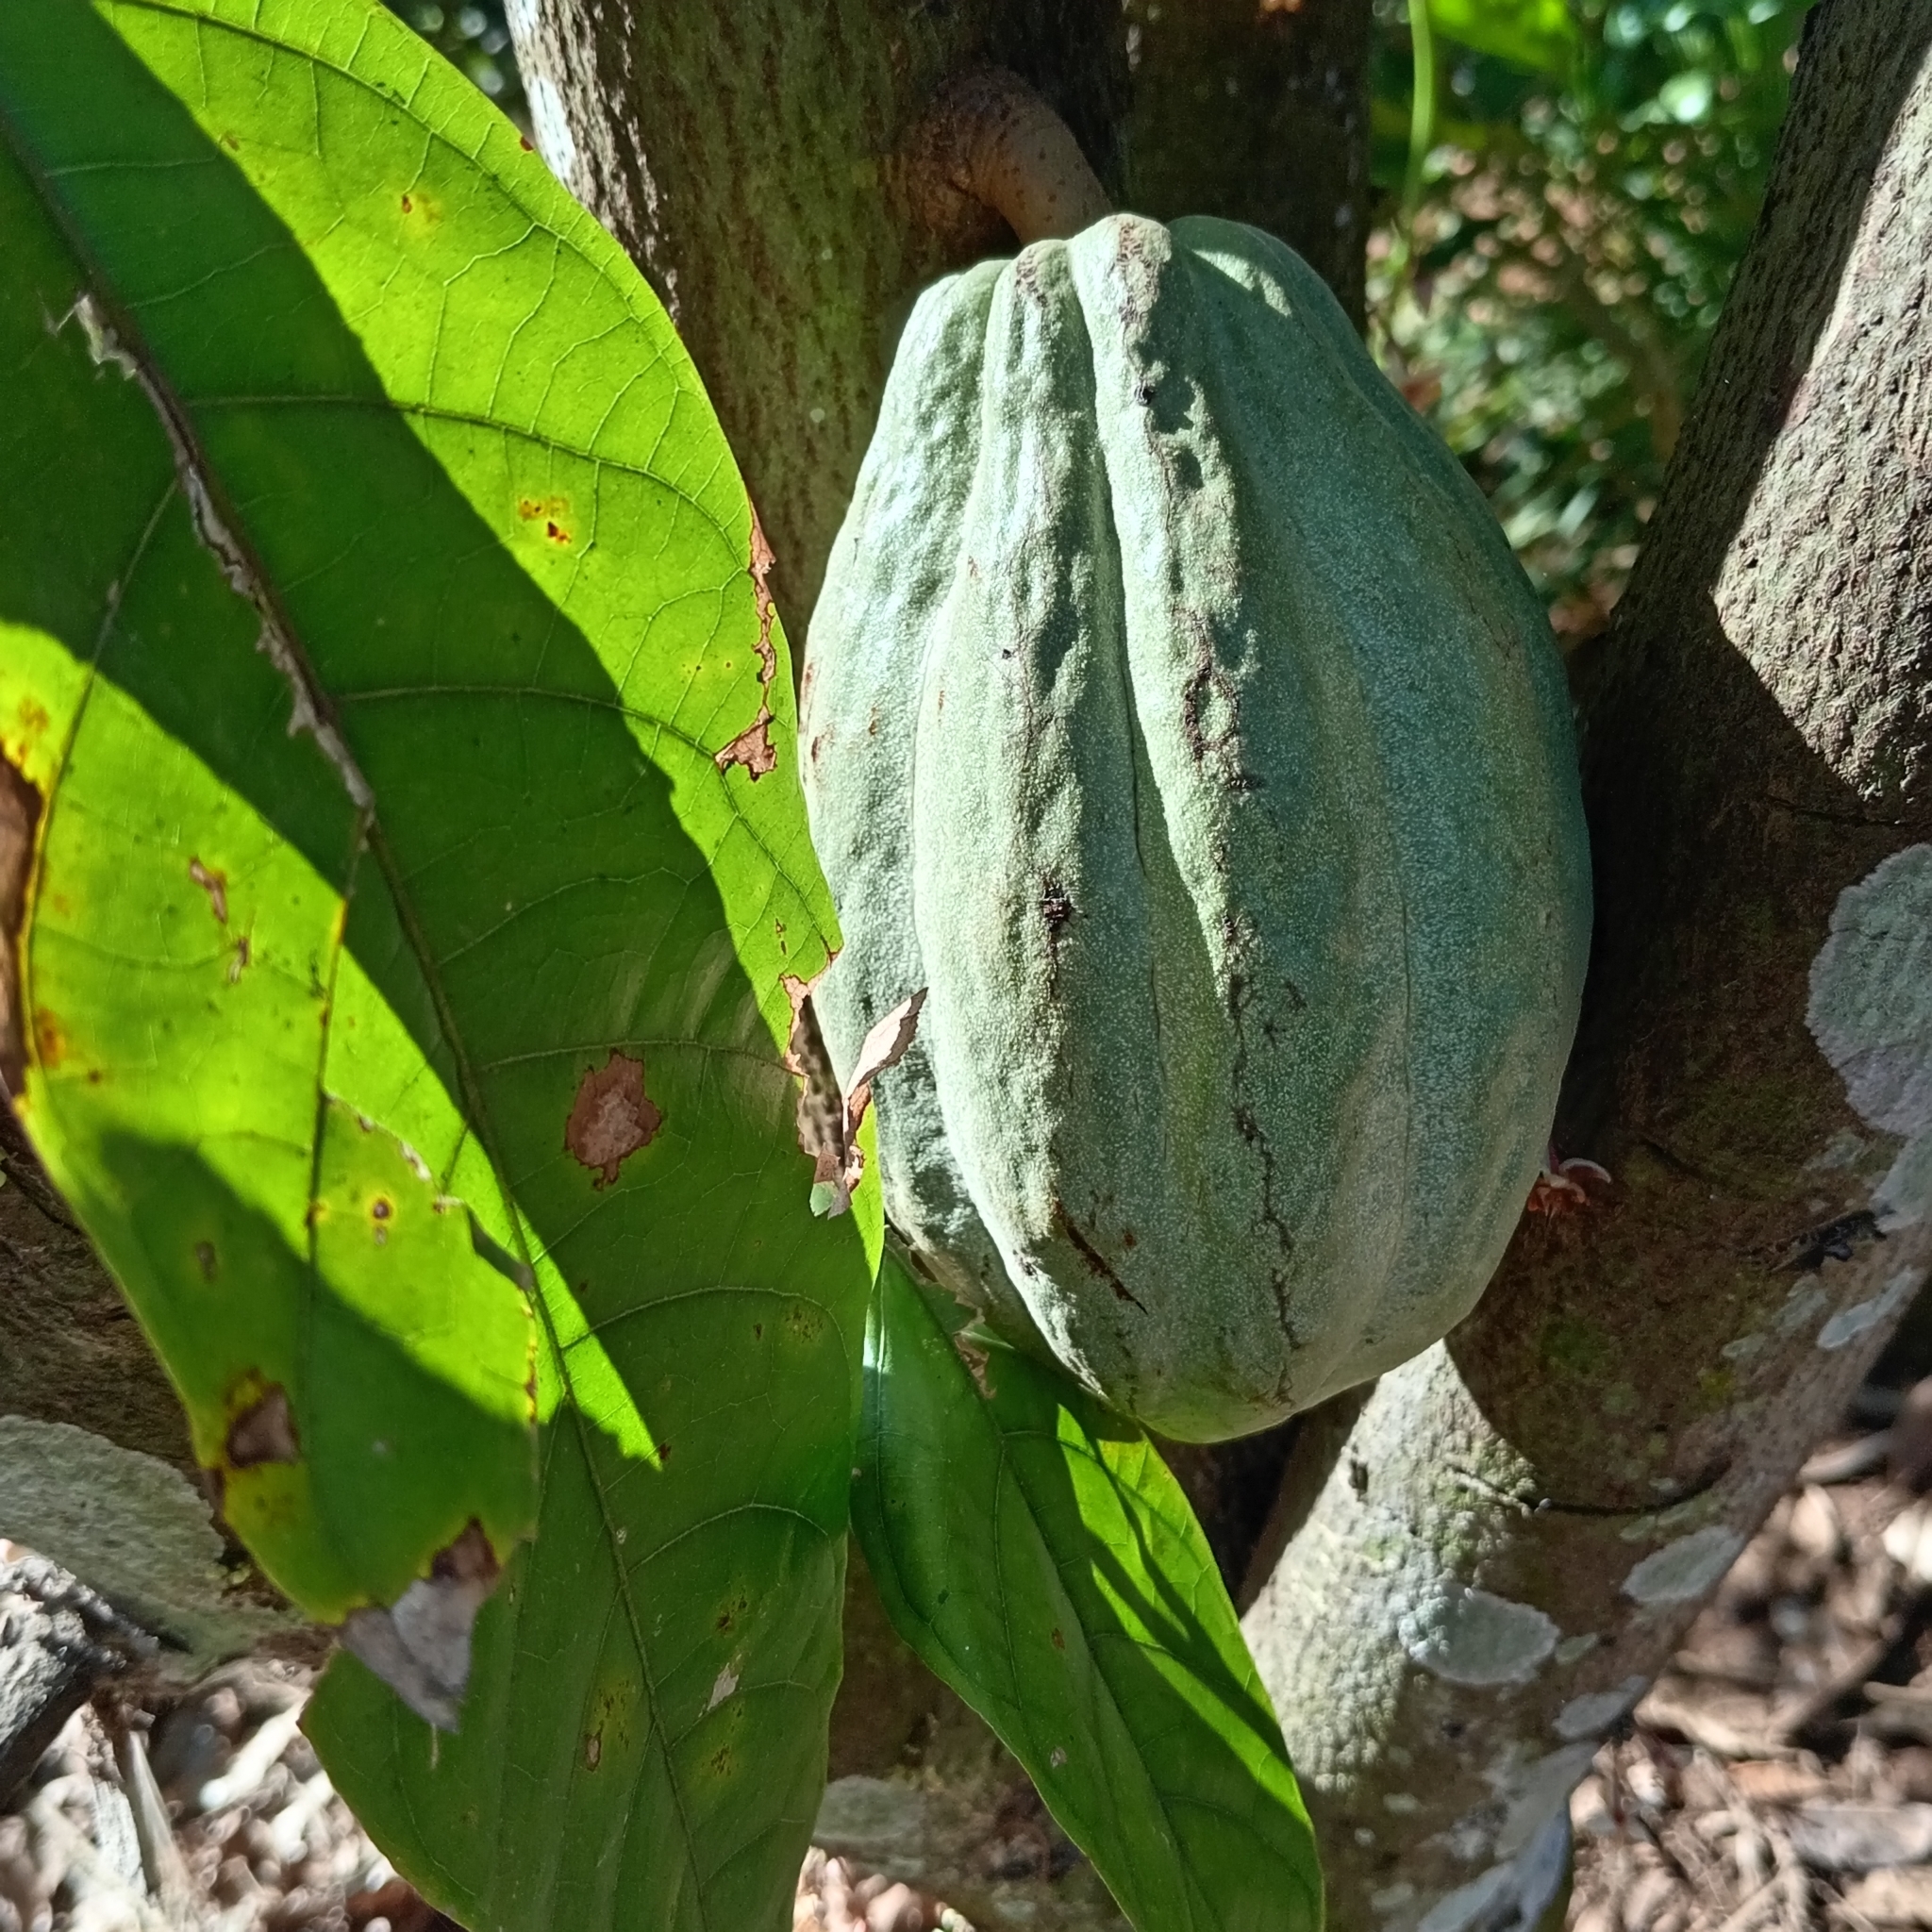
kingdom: Plantae
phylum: Tracheophyta
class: Magnoliopsida
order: Malvales
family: Malvaceae
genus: Theobroma
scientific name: Theobroma cacao
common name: Cocoa
